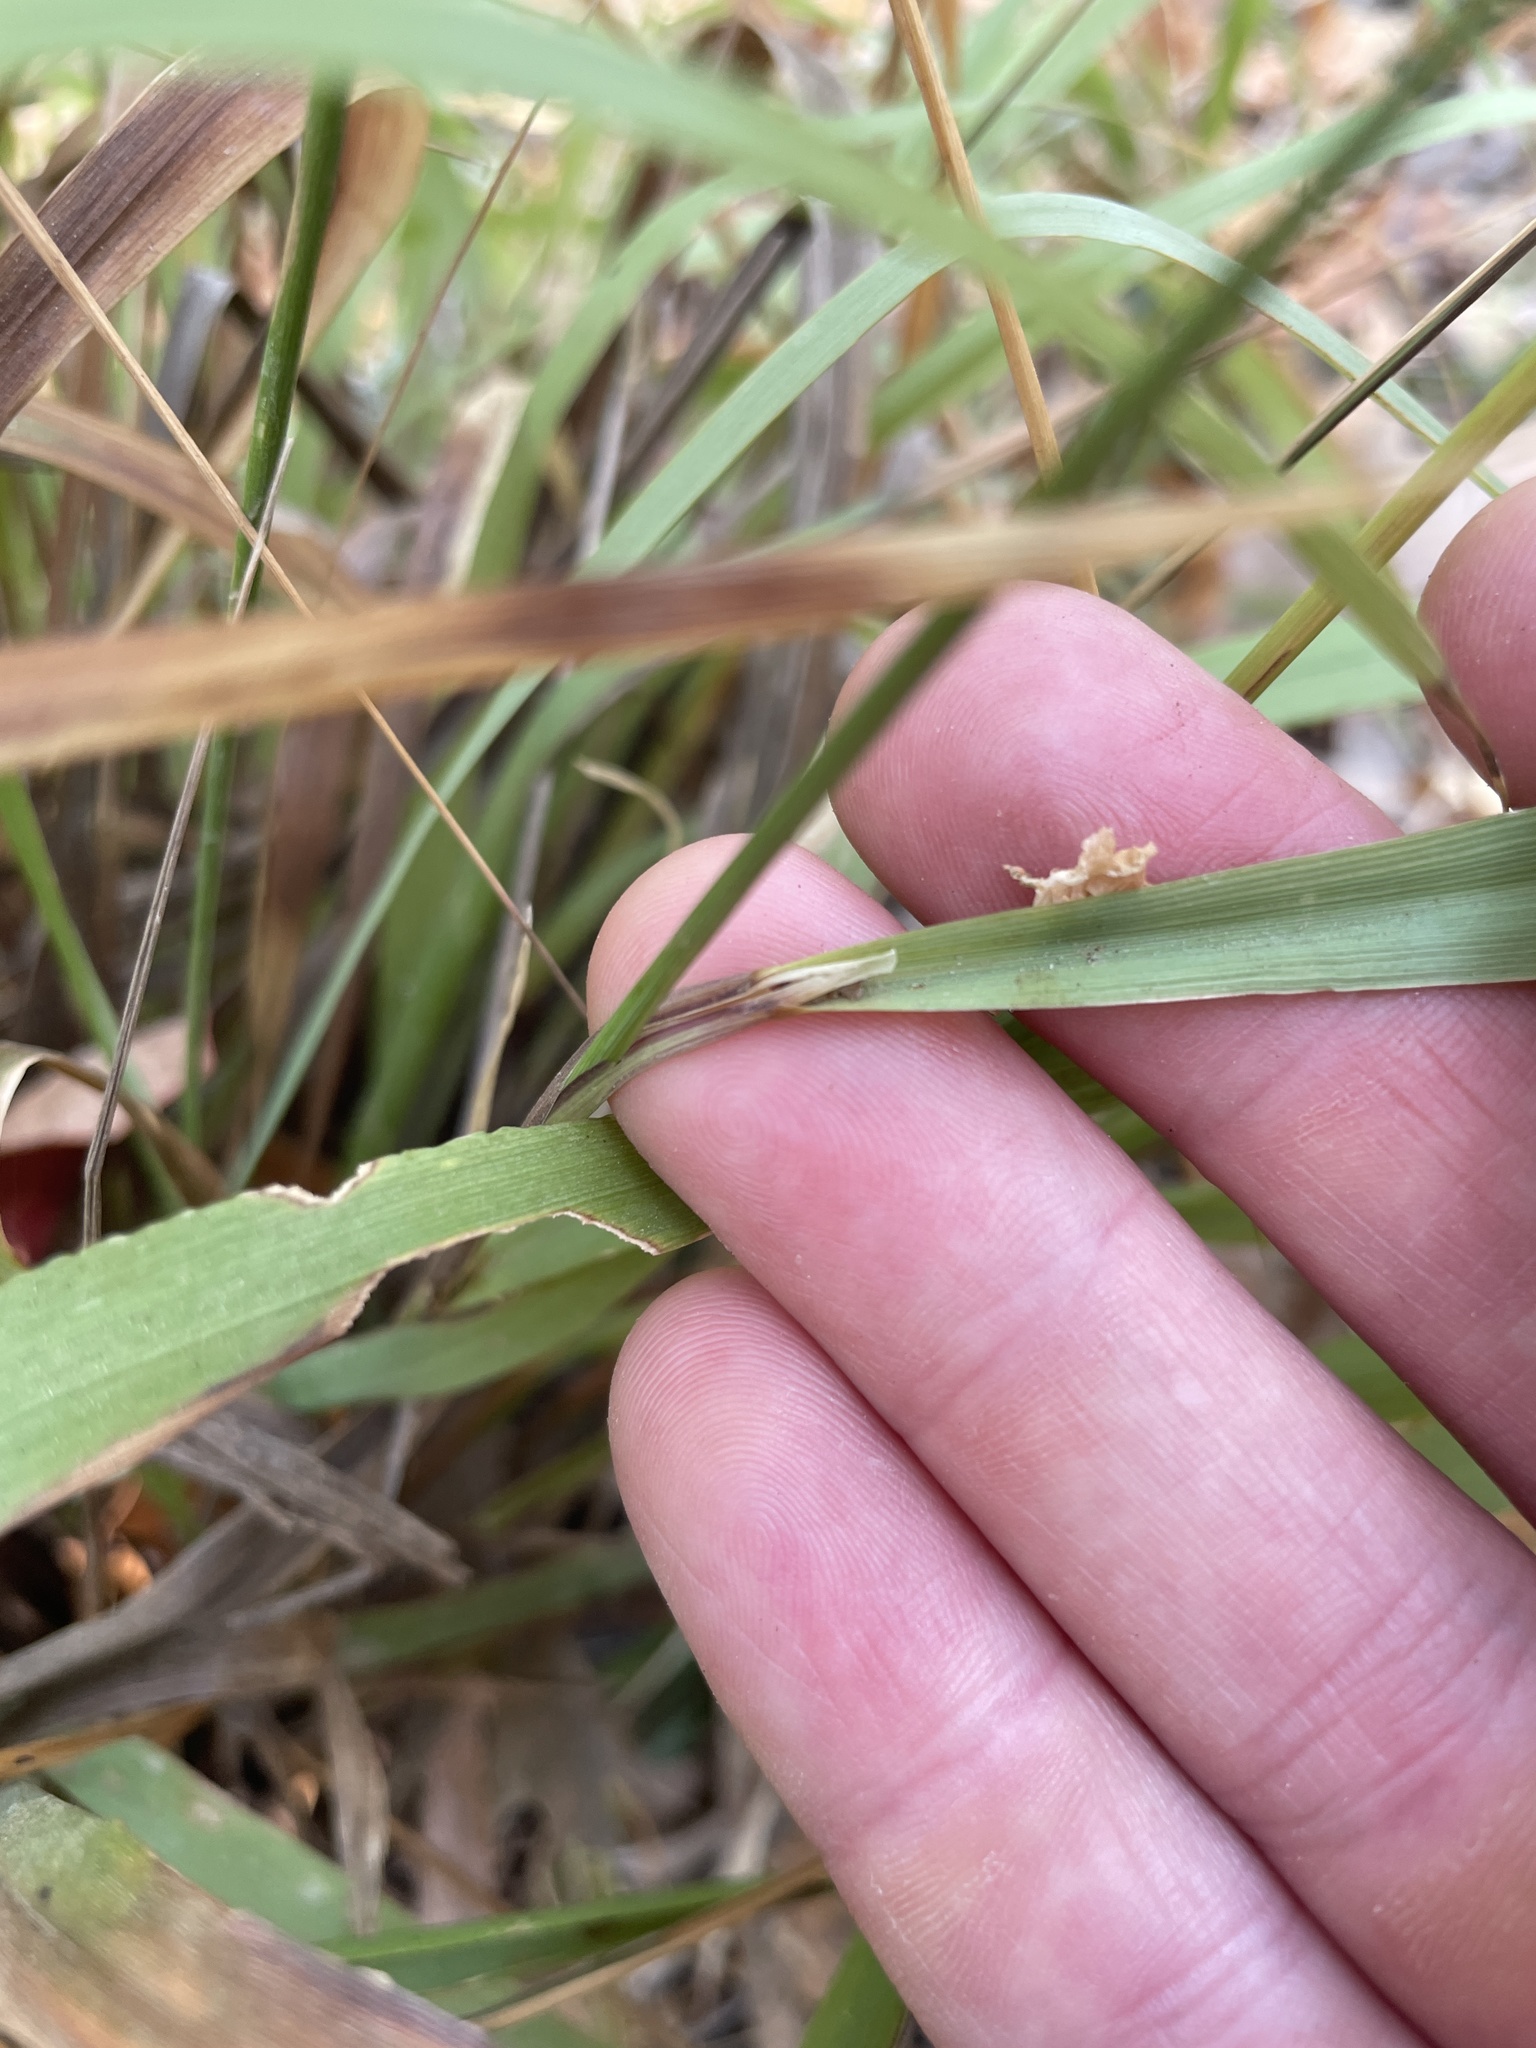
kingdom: Plantae
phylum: Tracheophyta
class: Liliopsida
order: Poales
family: Poaceae
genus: Anthoxanthum
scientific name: Anthoxanthum occidentale
